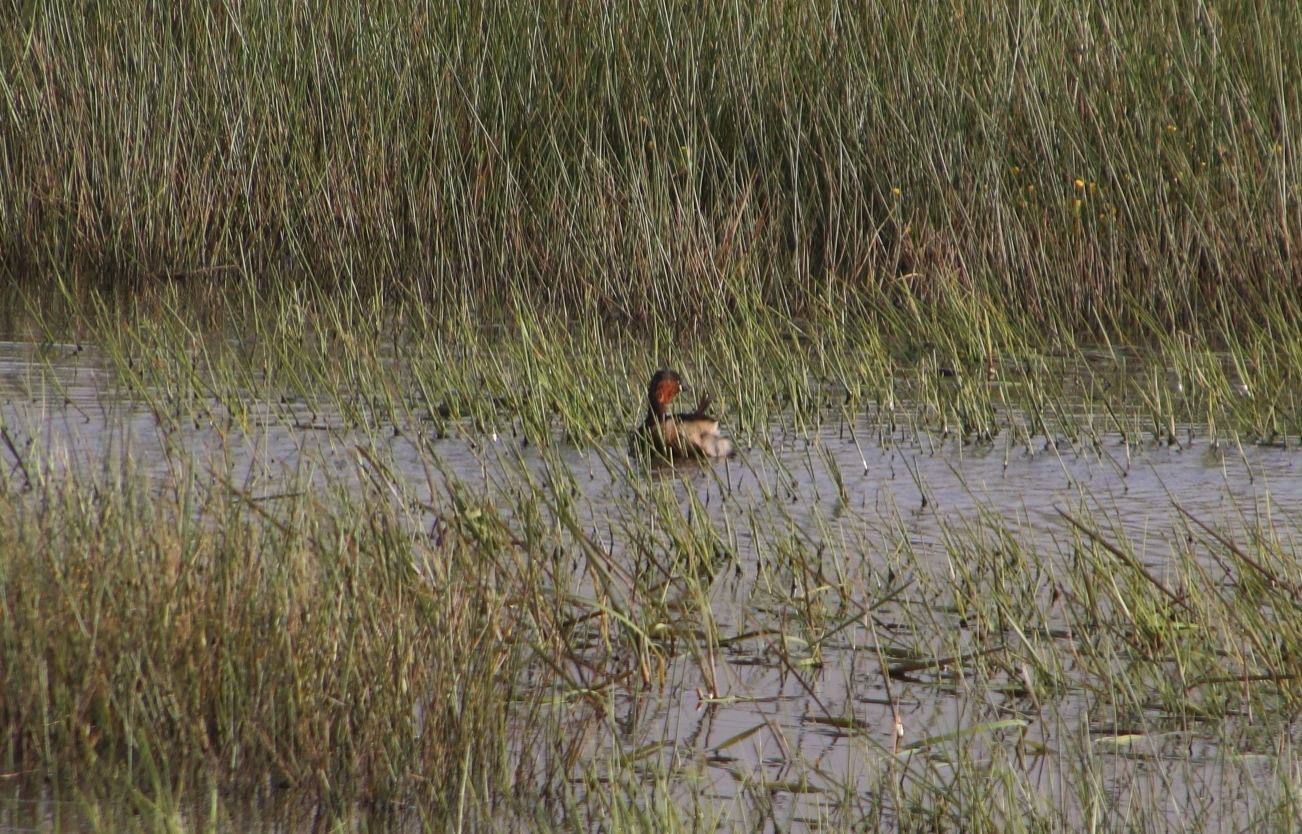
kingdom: Animalia
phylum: Chordata
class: Aves
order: Podicipediformes
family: Podicipedidae
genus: Tachybaptus
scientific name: Tachybaptus ruficollis
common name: Little grebe
